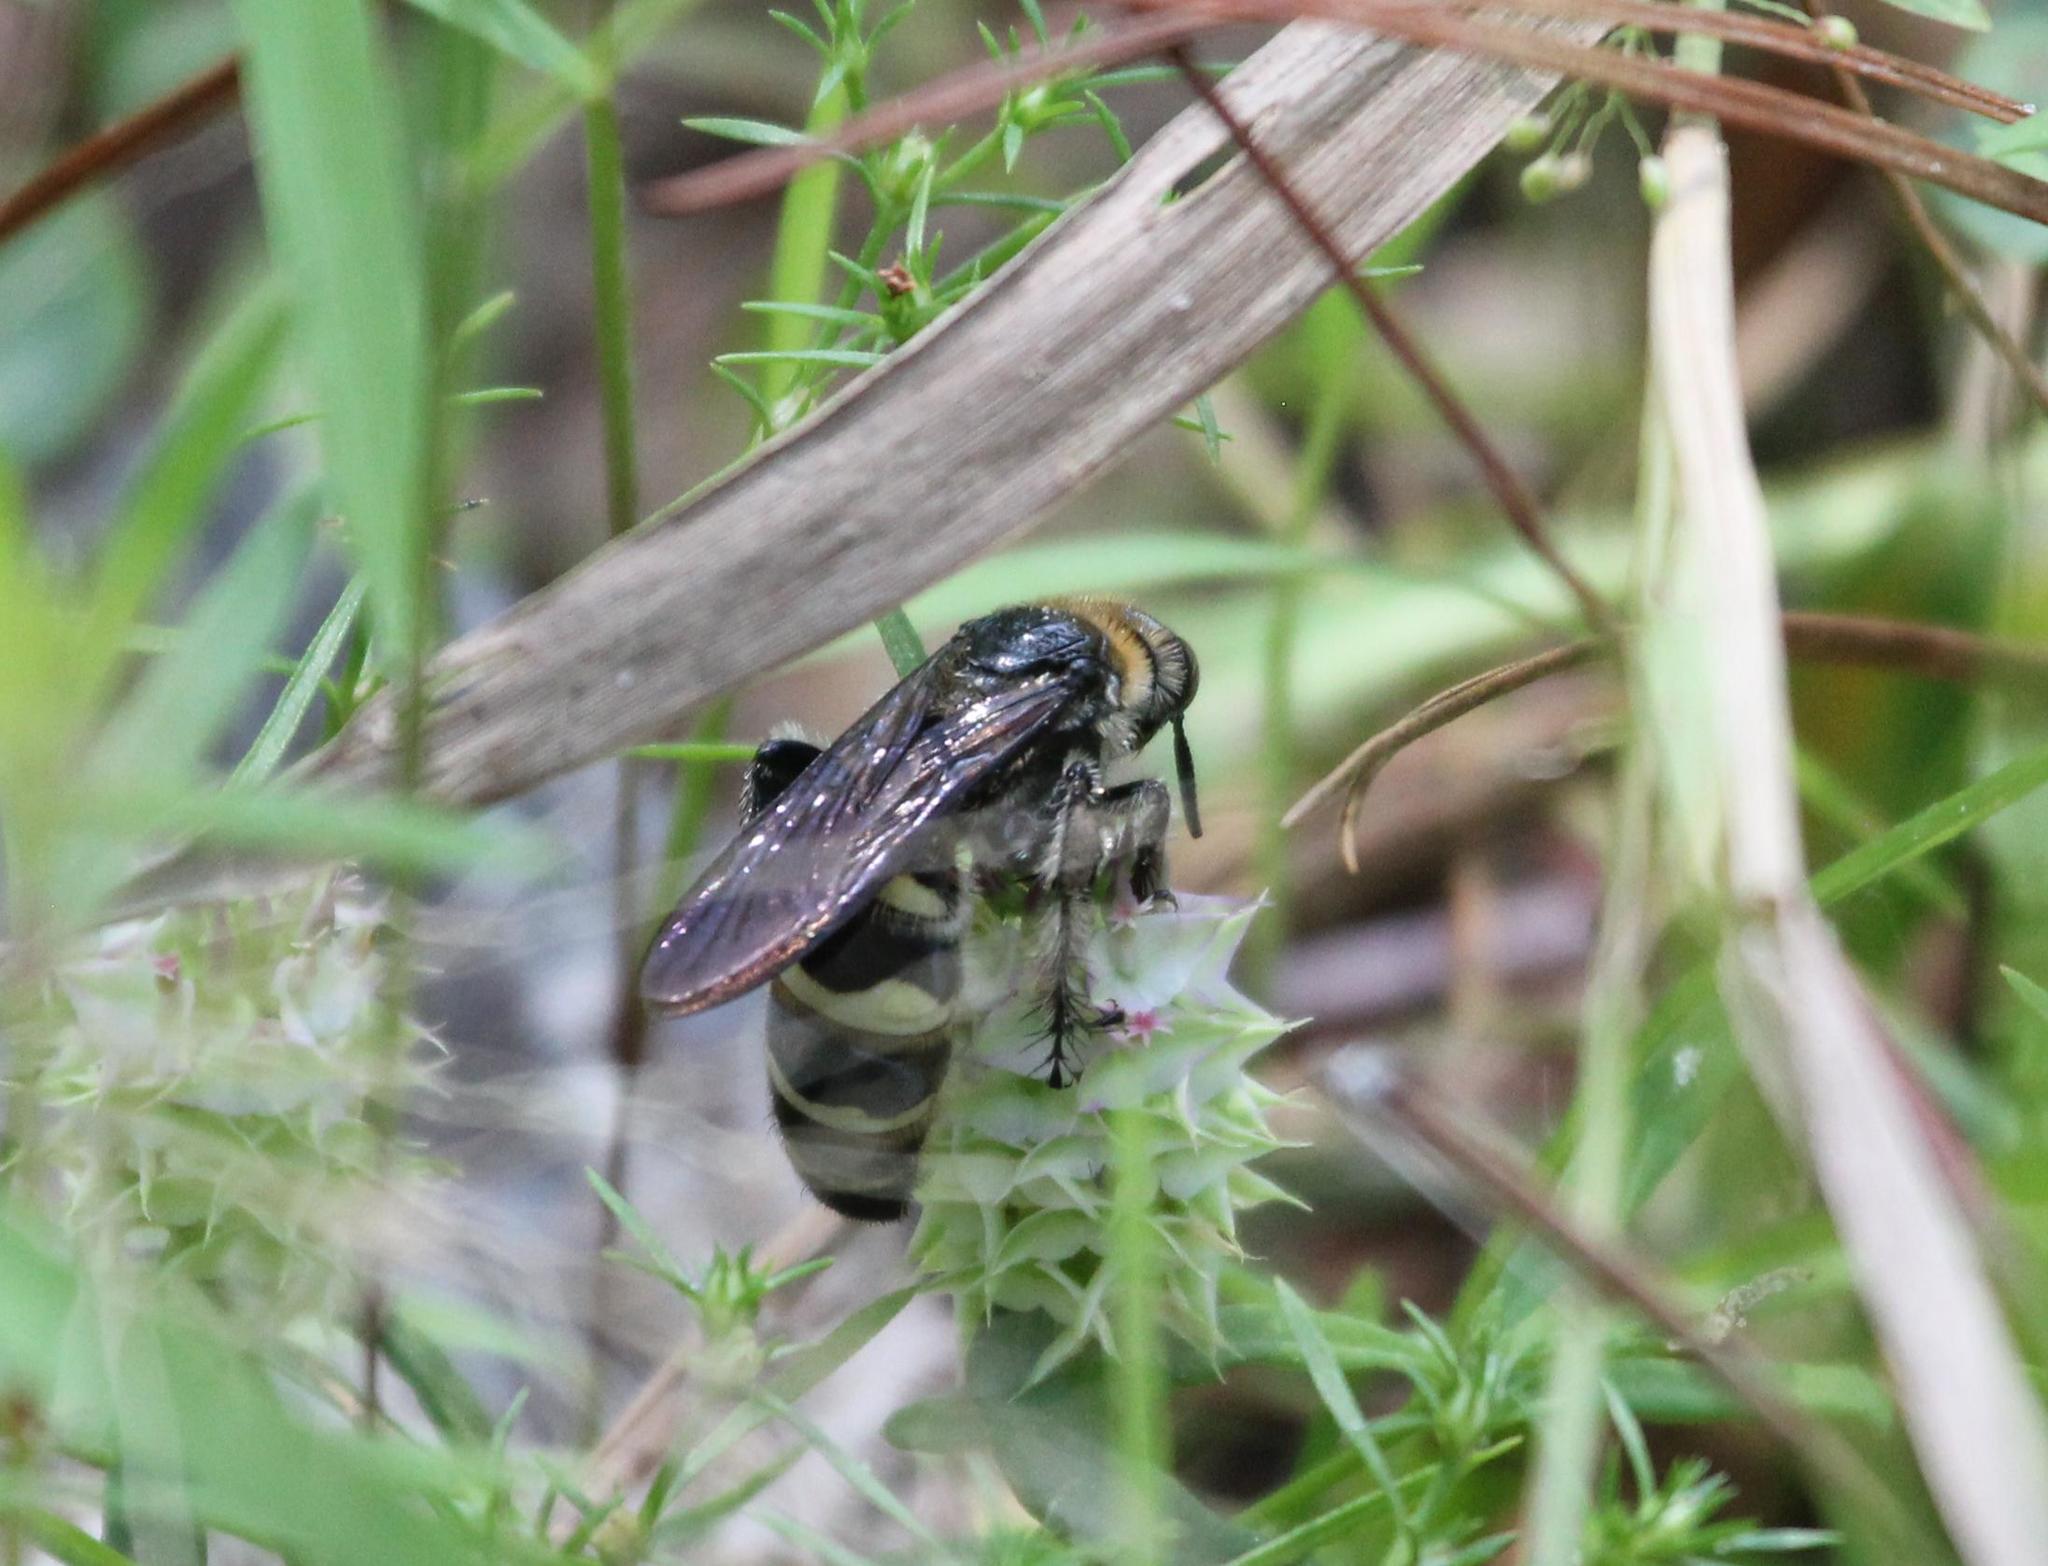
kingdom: Animalia
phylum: Arthropoda
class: Insecta
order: Hymenoptera
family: Scoliidae
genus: Dielis
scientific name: Dielis
